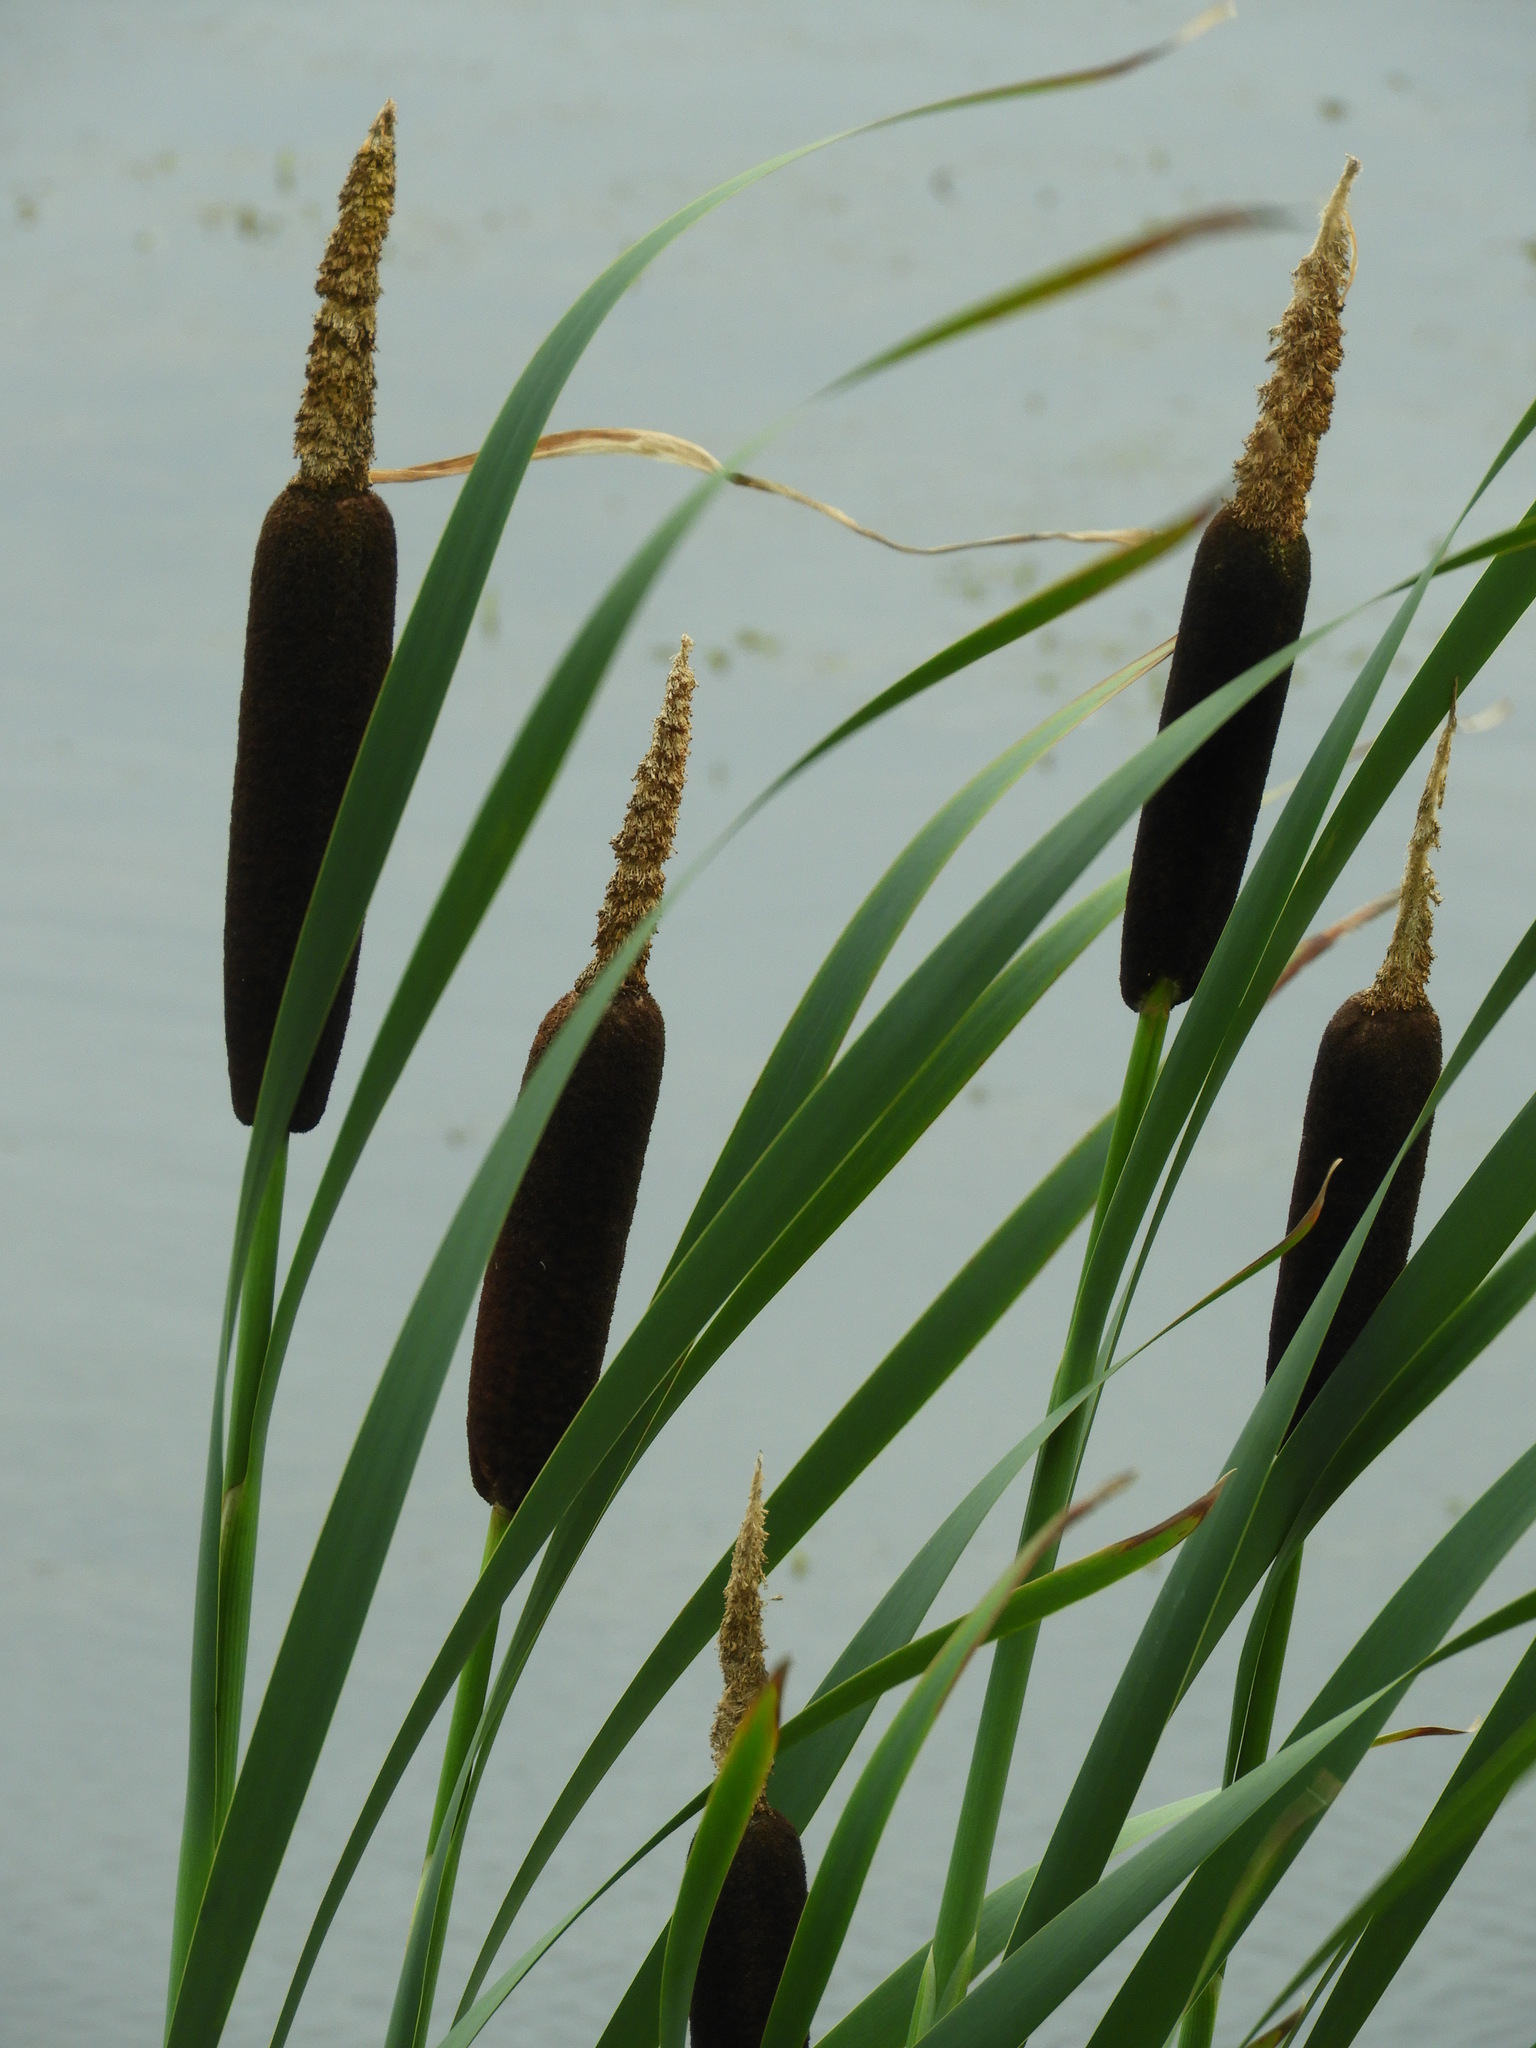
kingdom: Plantae
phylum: Tracheophyta
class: Liliopsida
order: Poales
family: Typhaceae
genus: Typha
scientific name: Typha latifolia
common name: Broadleaf cattail
